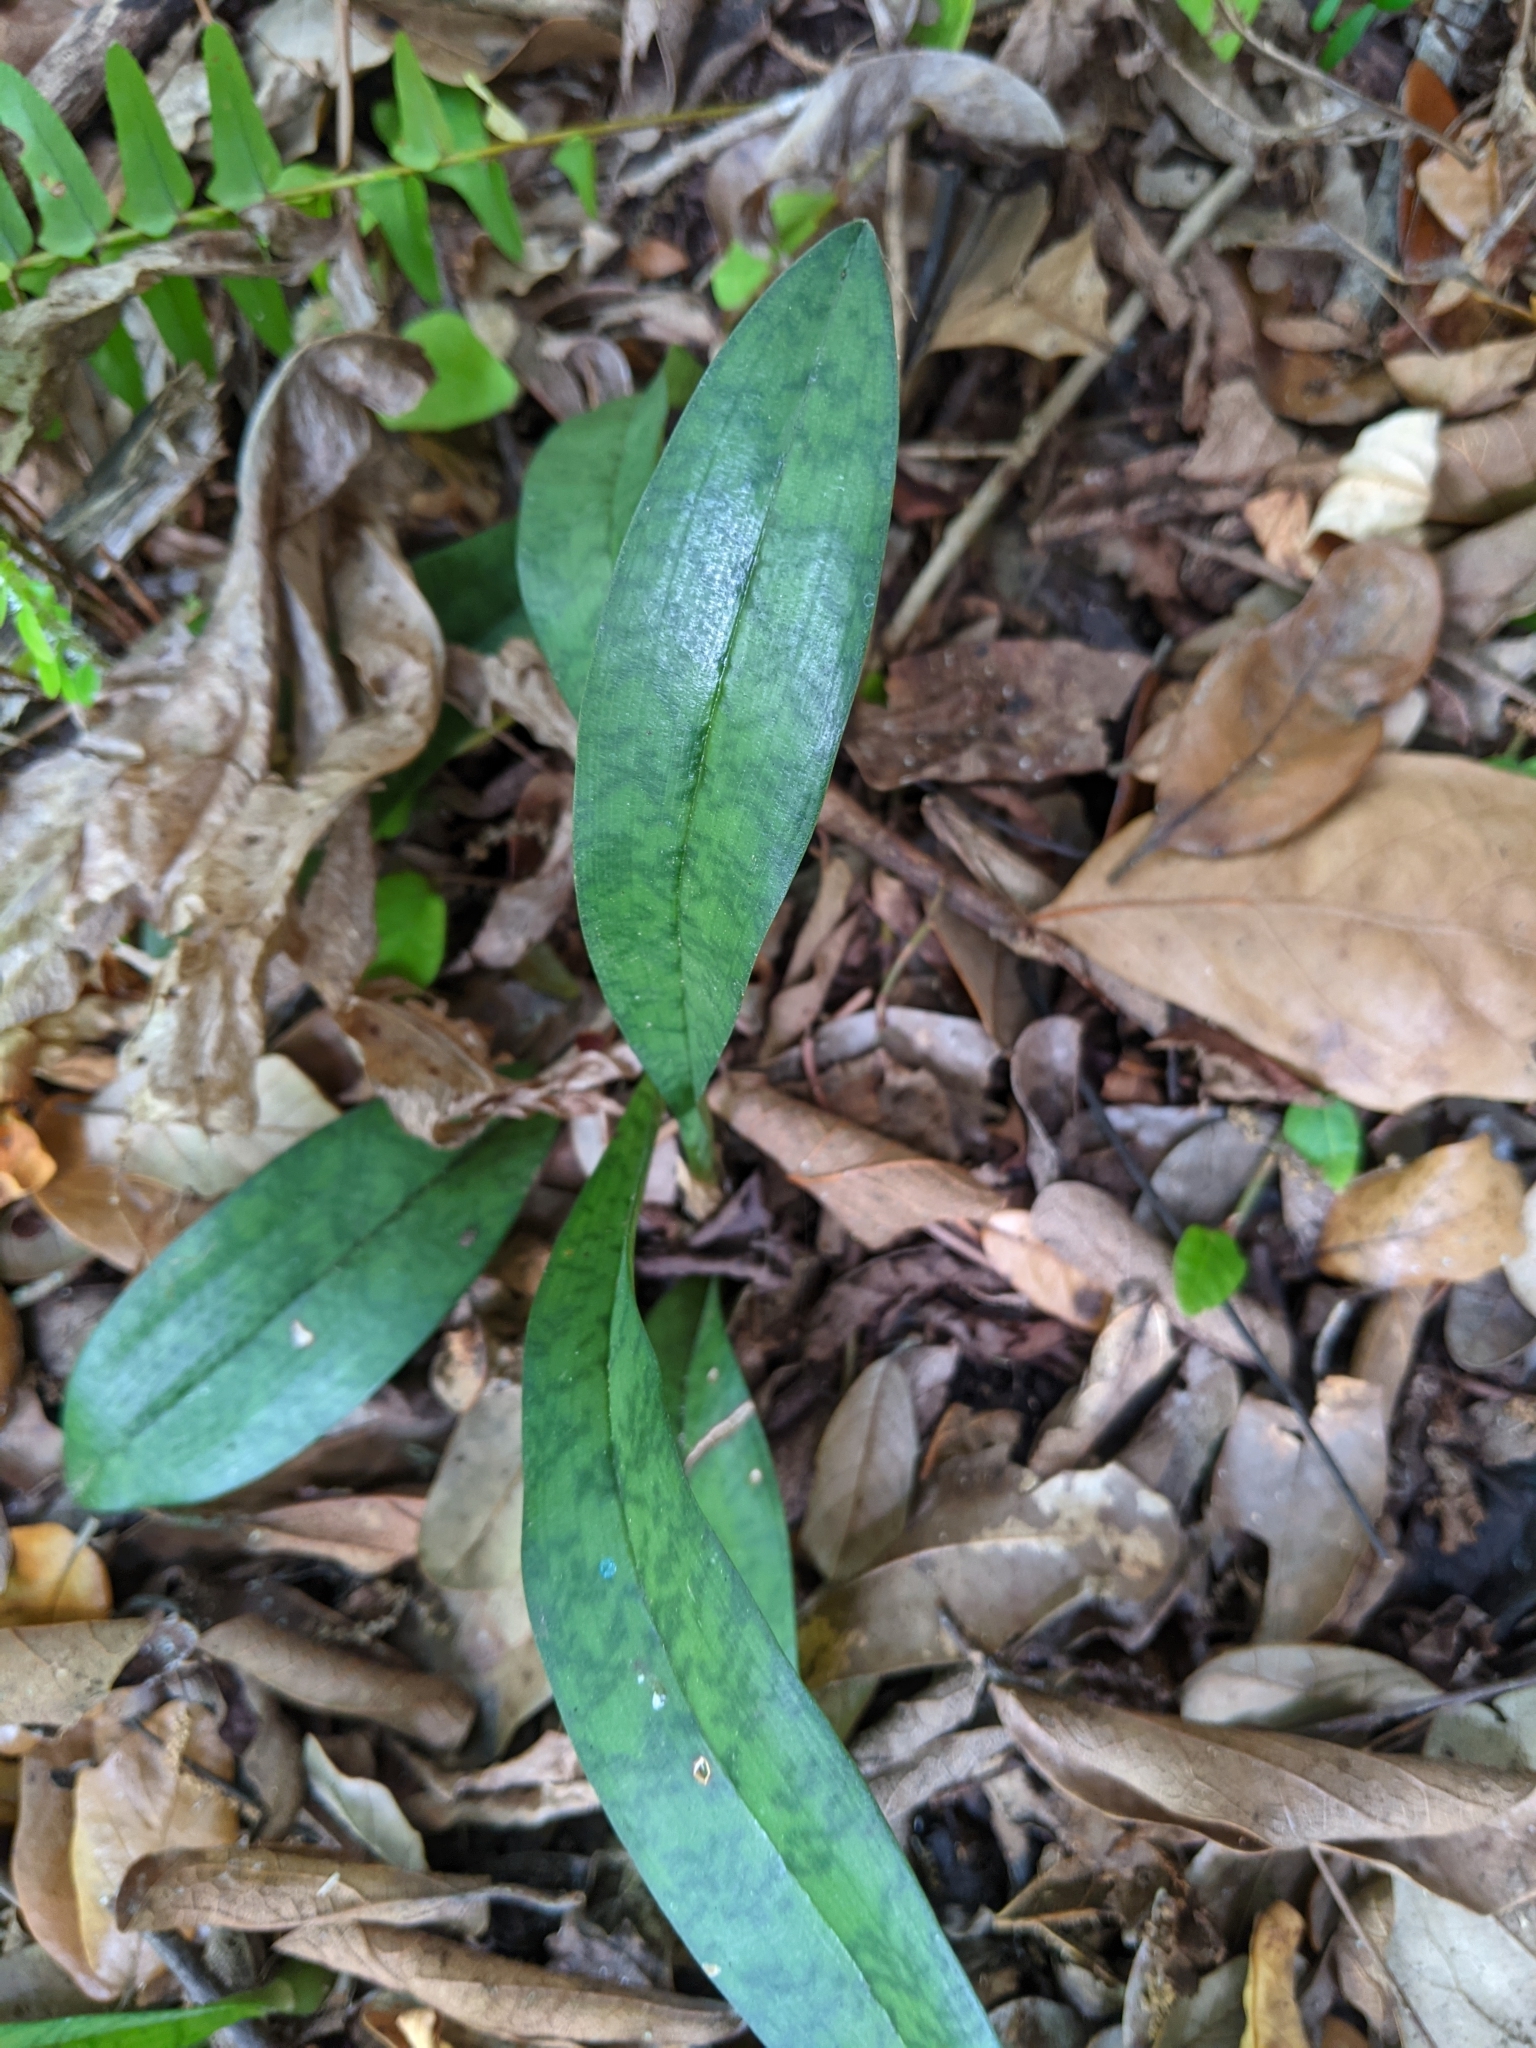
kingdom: Plantae
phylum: Tracheophyta
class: Liliopsida
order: Asparagales
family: Orchidaceae
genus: Eulophia
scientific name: Eulophia maculata
